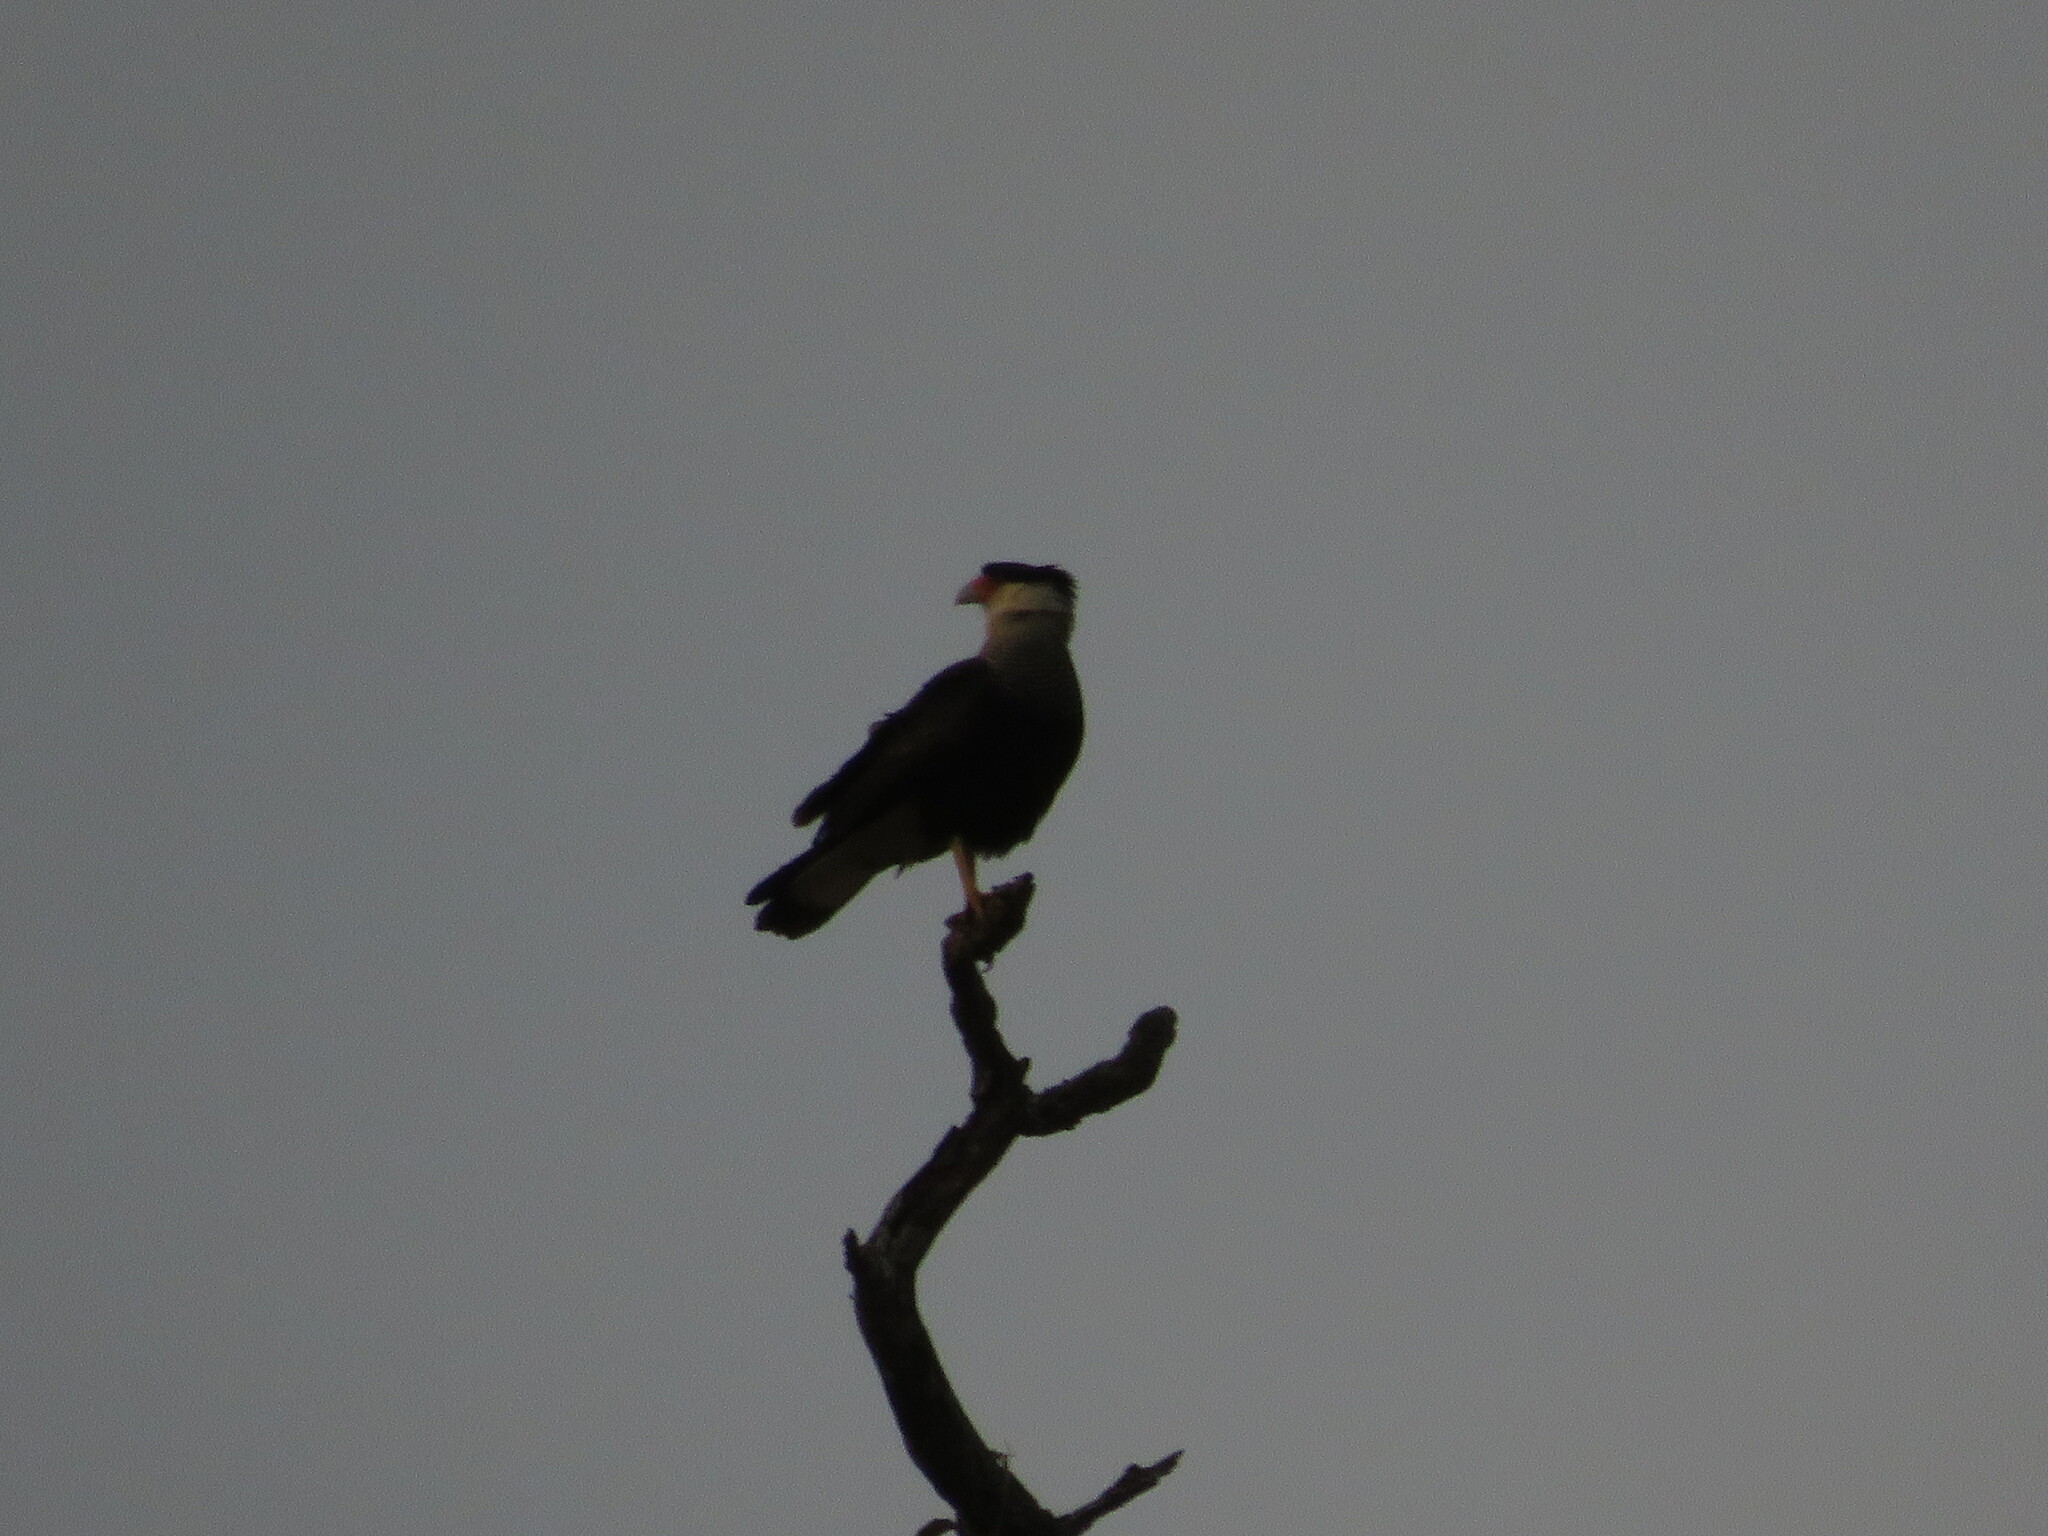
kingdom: Animalia
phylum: Chordata
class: Aves
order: Falconiformes
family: Falconidae
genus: Caracara
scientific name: Caracara plancus
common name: Southern caracara
